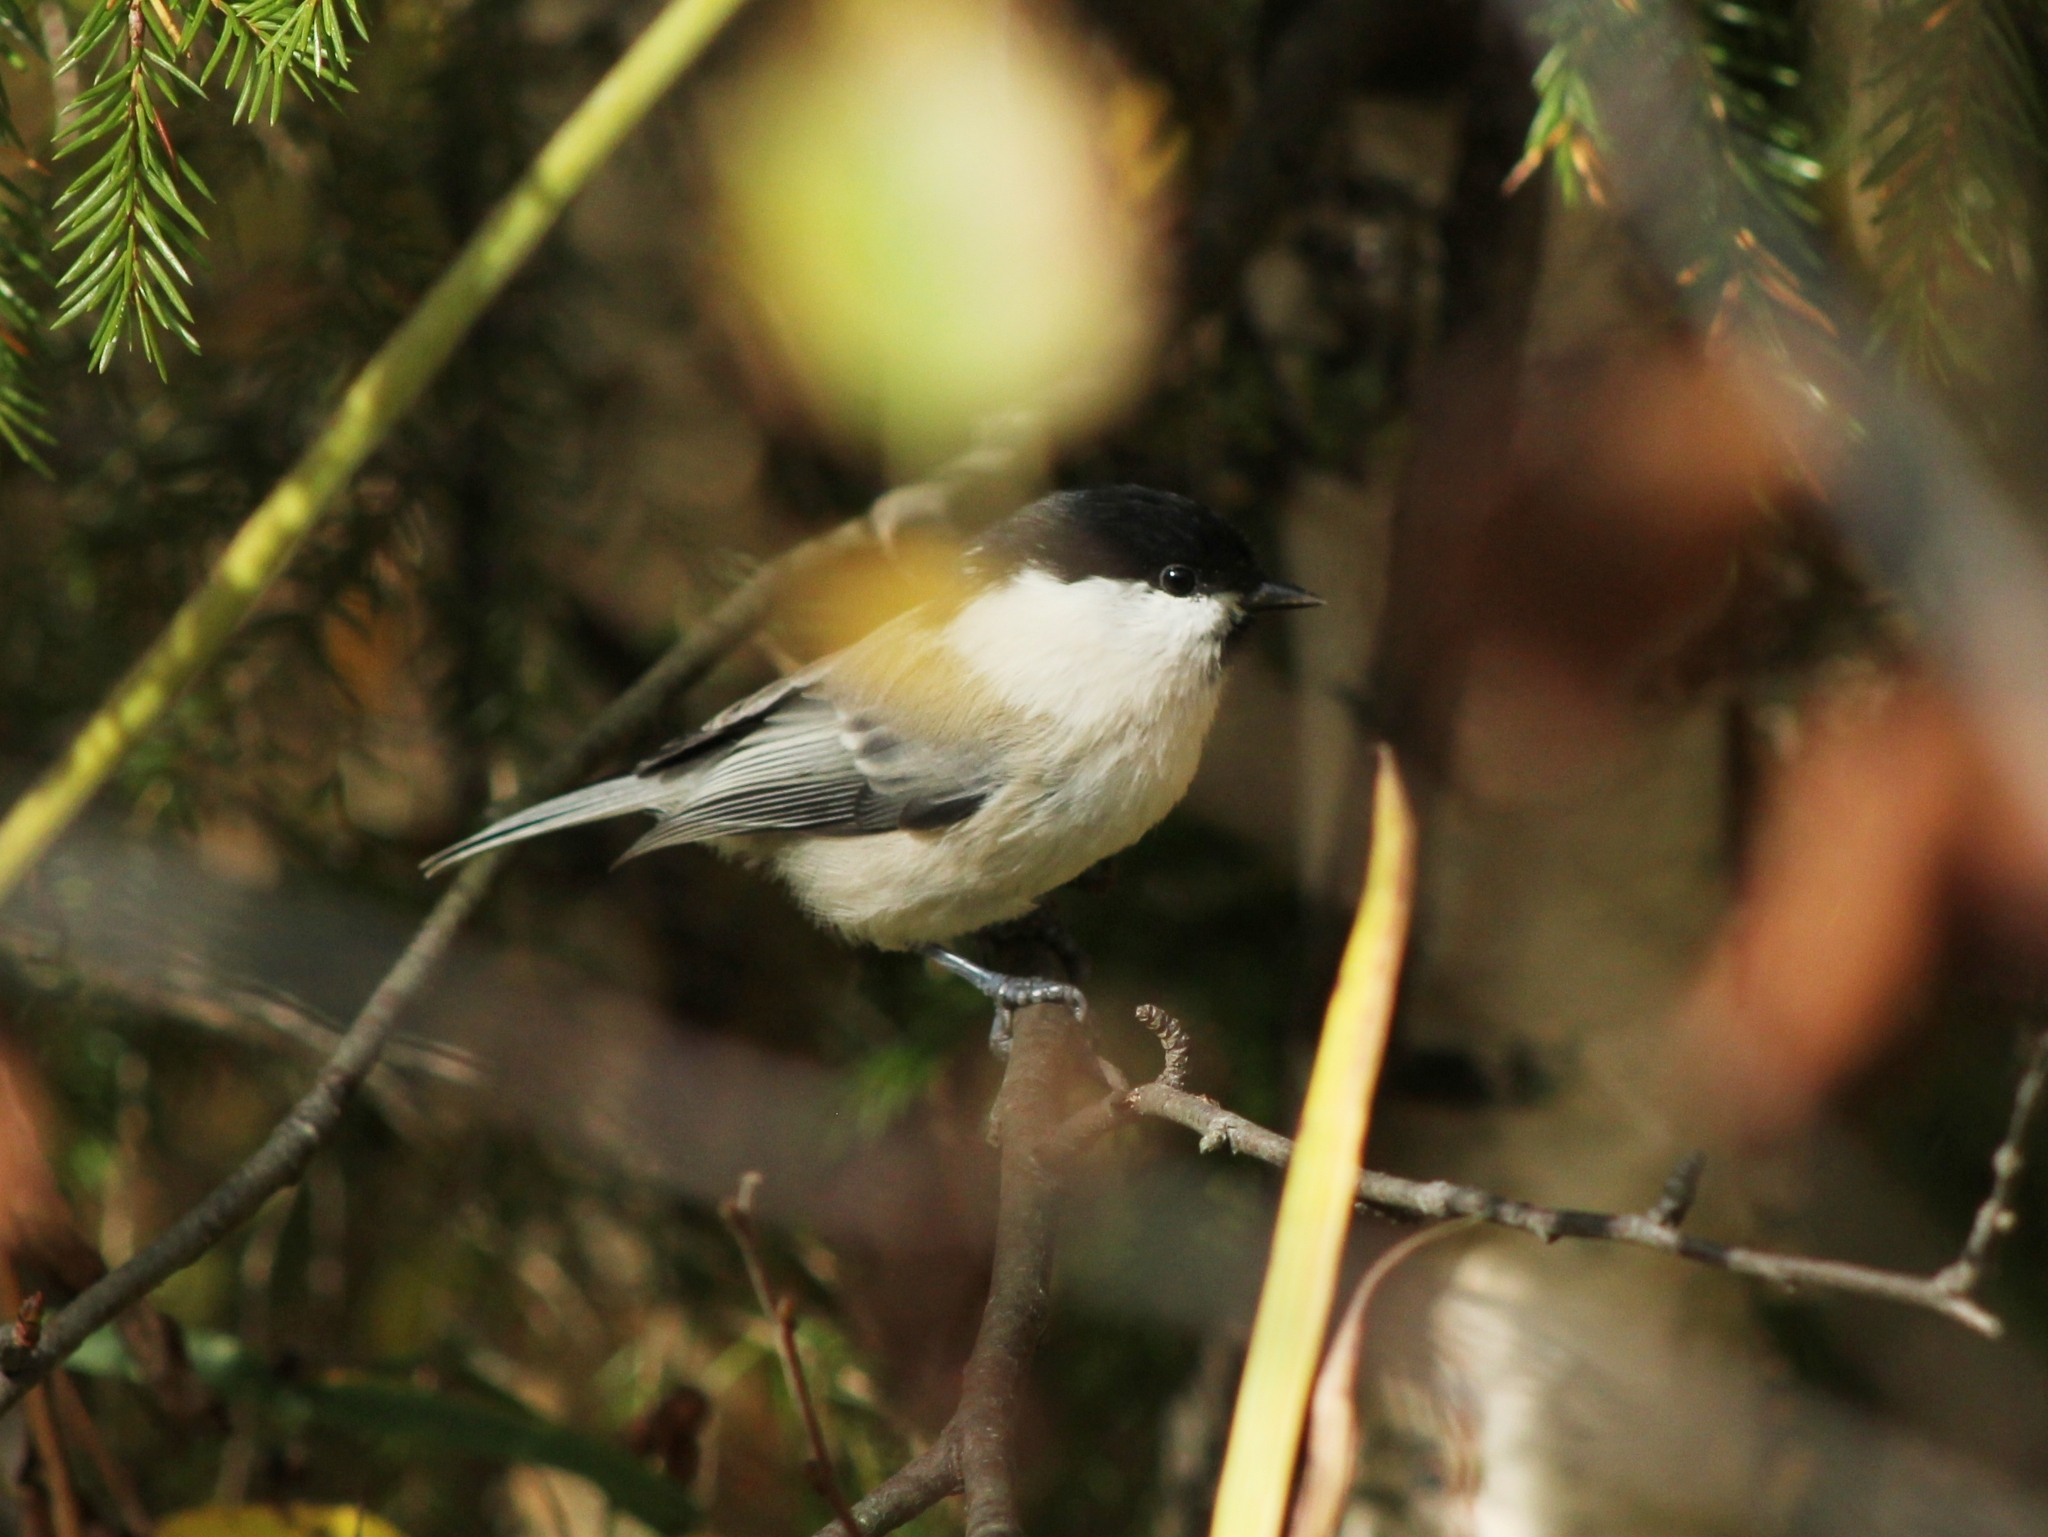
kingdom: Animalia
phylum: Chordata
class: Aves
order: Passeriformes
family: Paridae
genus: Poecile
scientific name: Poecile montanus
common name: Willow tit
